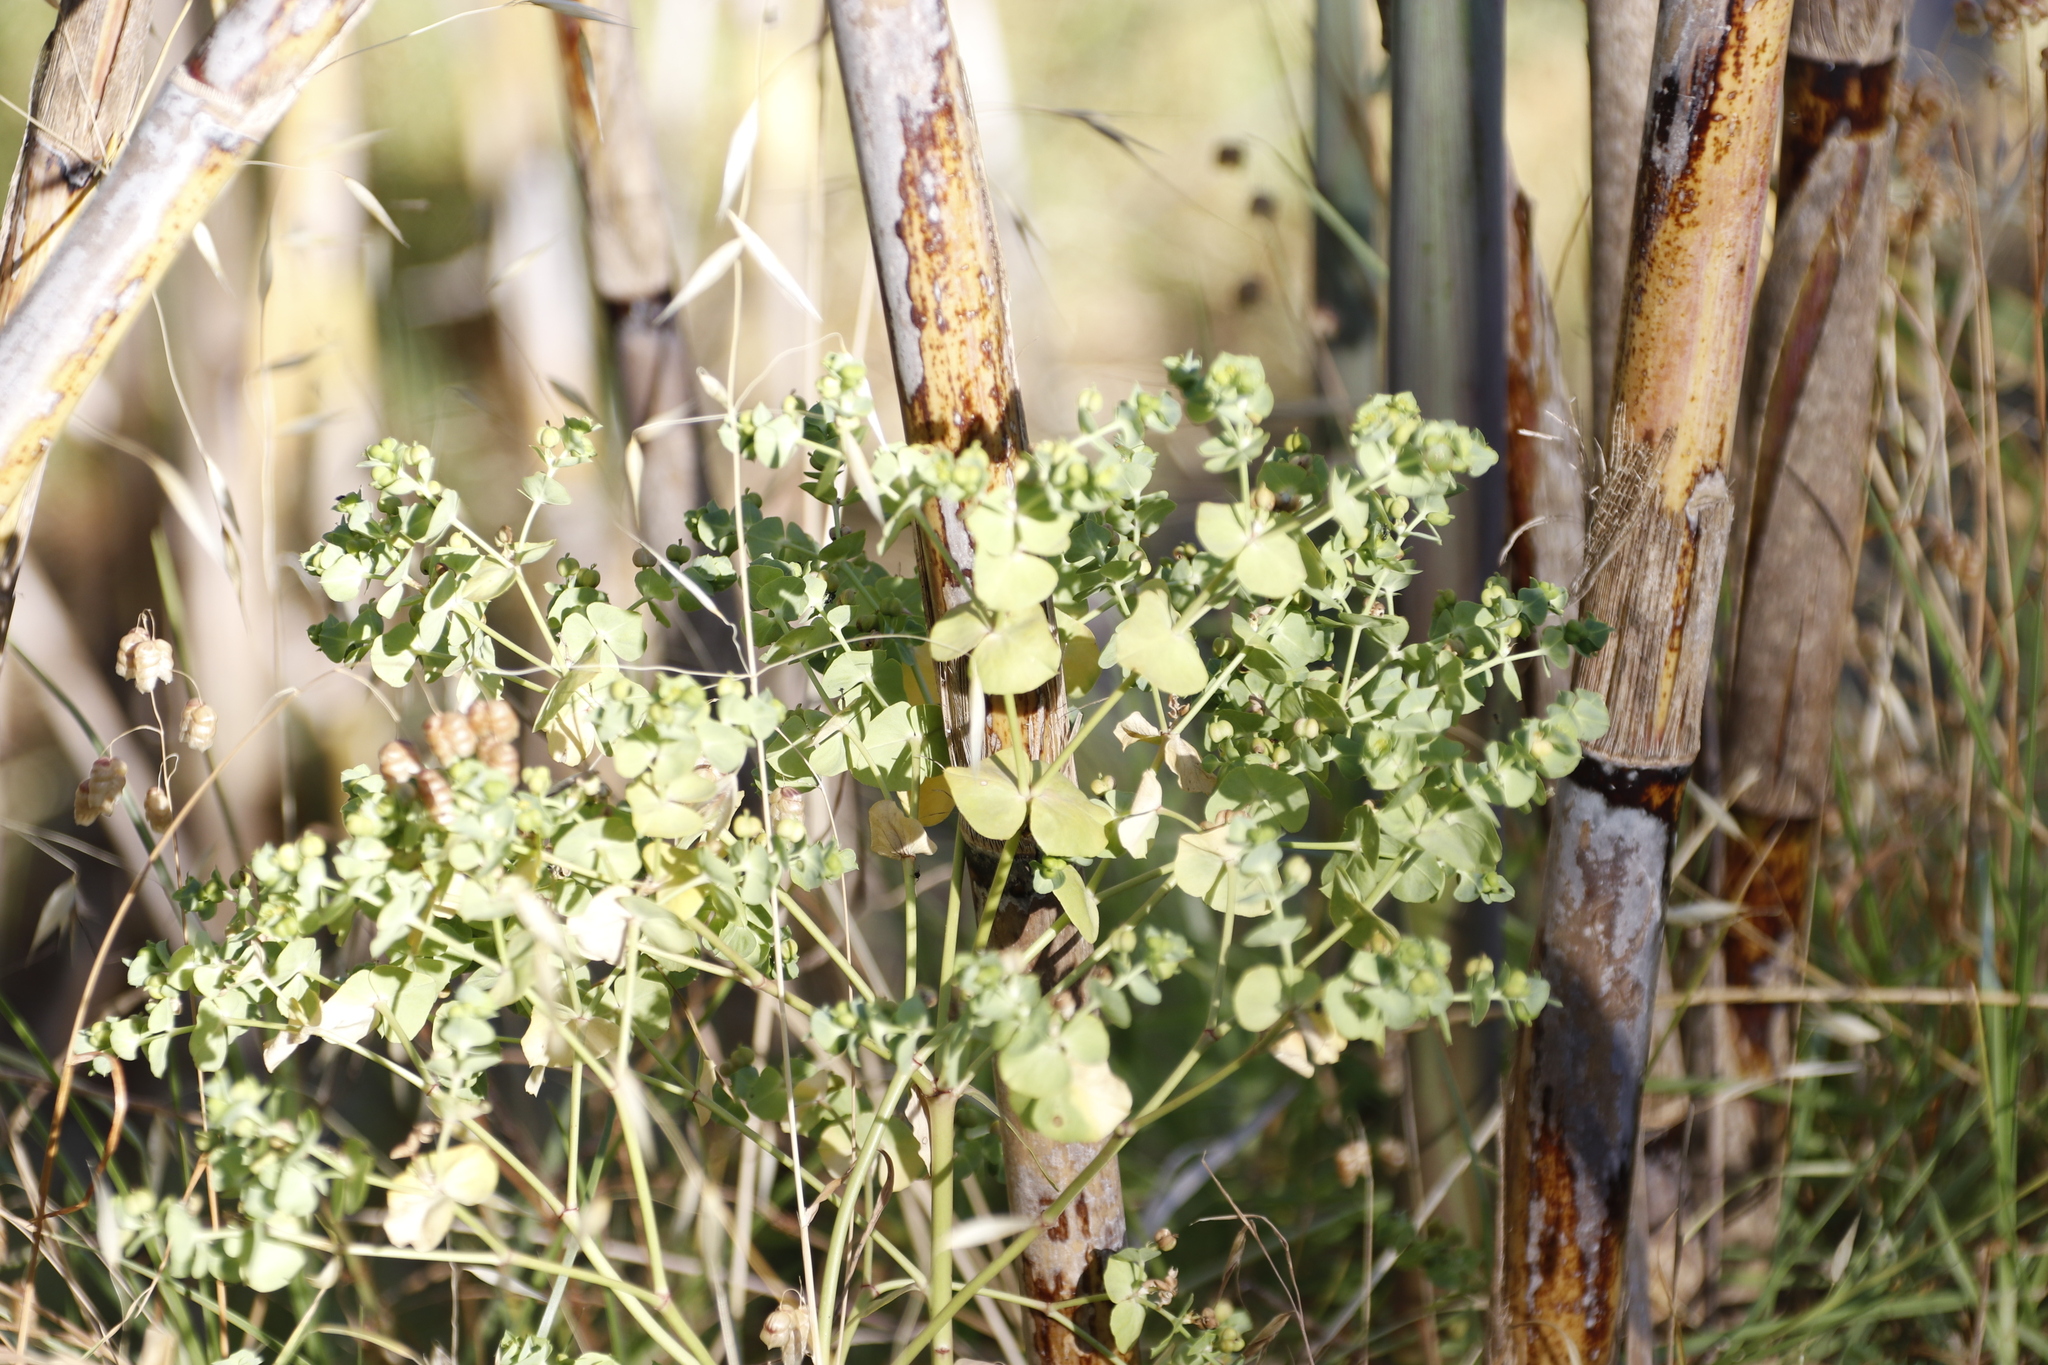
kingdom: Plantae
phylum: Tracheophyta
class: Magnoliopsida
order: Malpighiales
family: Euphorbiaceae
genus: Euphorbia
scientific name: Euphorbia terracina
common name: Geraldton carnation weed
